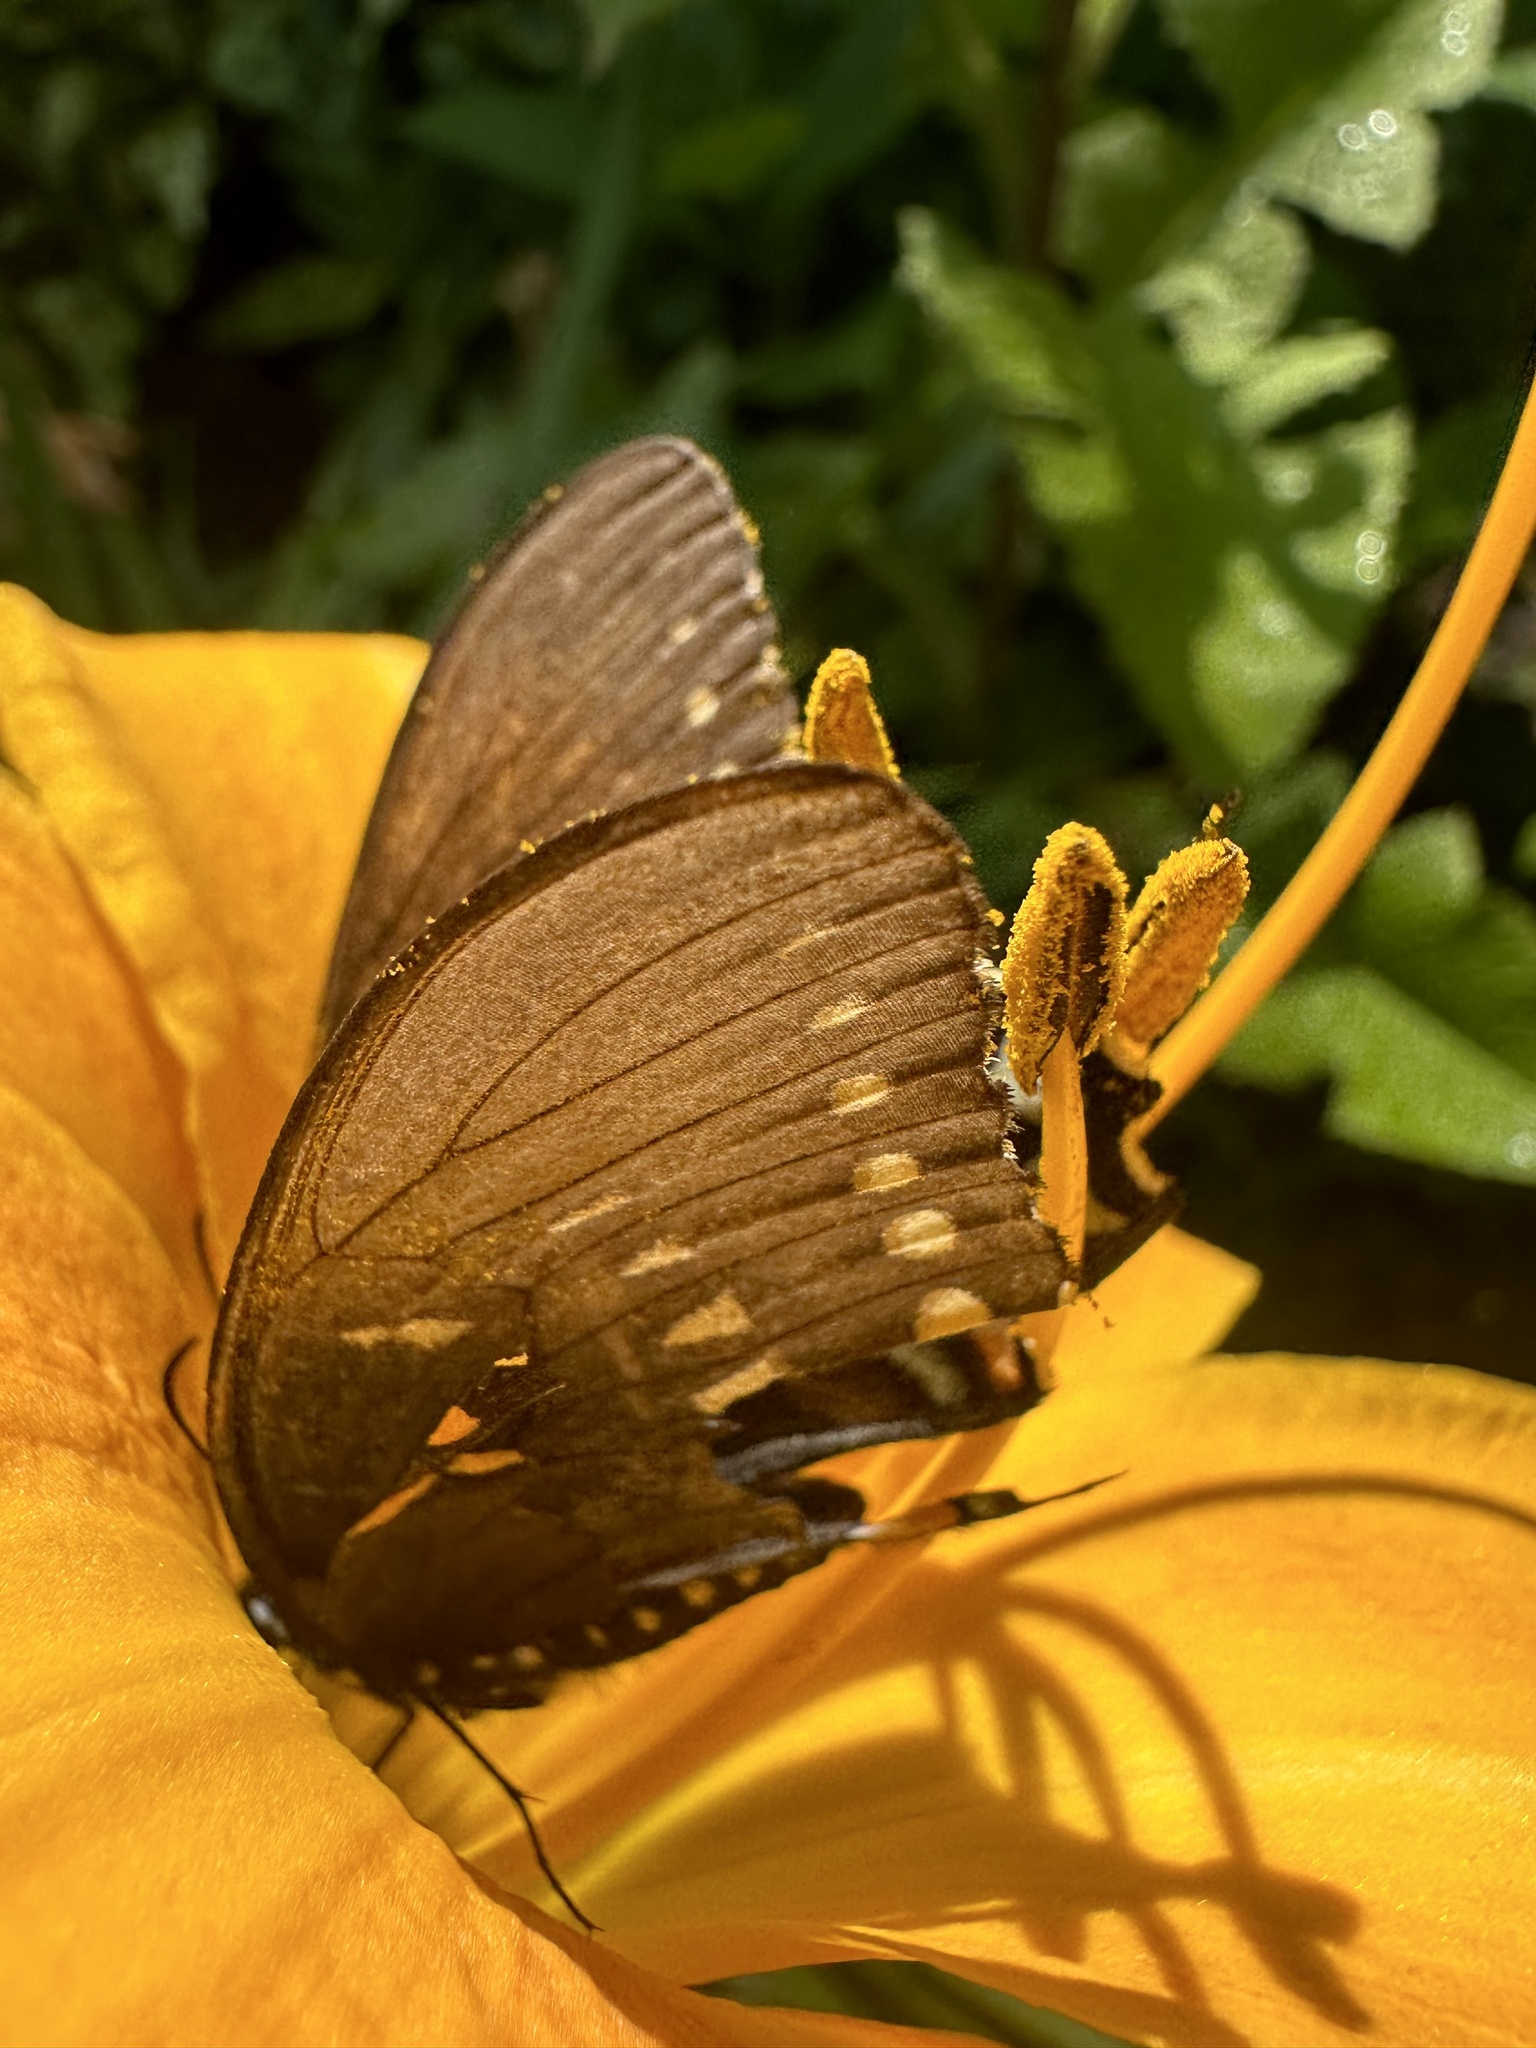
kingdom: Animalia
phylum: Arthropoda
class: Insecta
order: Lepidoptera
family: Papilionidae
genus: Papilio
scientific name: Papilio troilus
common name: Spicebush swallowtail
